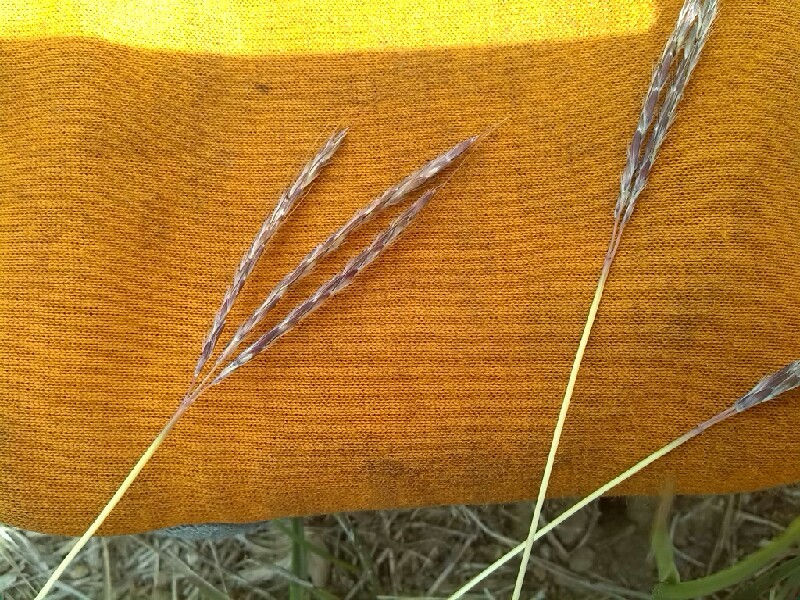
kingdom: Plantae
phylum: Tracheophyta
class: Liliopsida
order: Poales
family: Poaceae
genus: Bothriochloa
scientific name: Bothriochloa ischaemum
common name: Yellow bluestem
